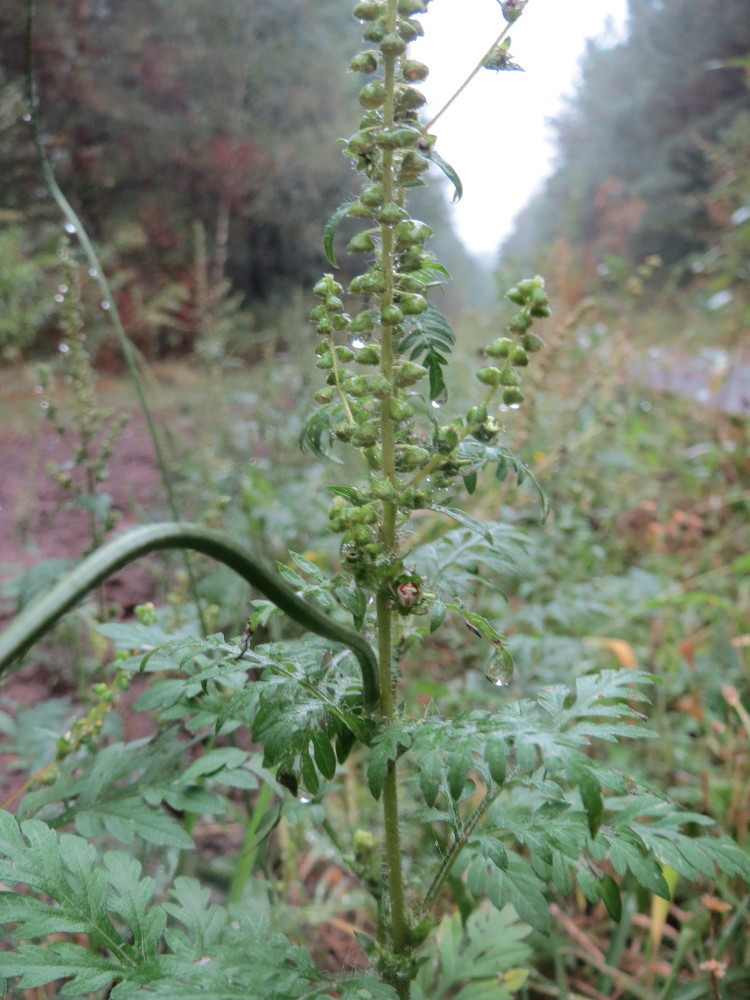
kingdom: Plantae
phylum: Tracheophyta
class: Magnoliopsida
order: Asterales
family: Asteraceae
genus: Ambrosia
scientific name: Ambrosia artemisiifolia
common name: Annual ragweed
